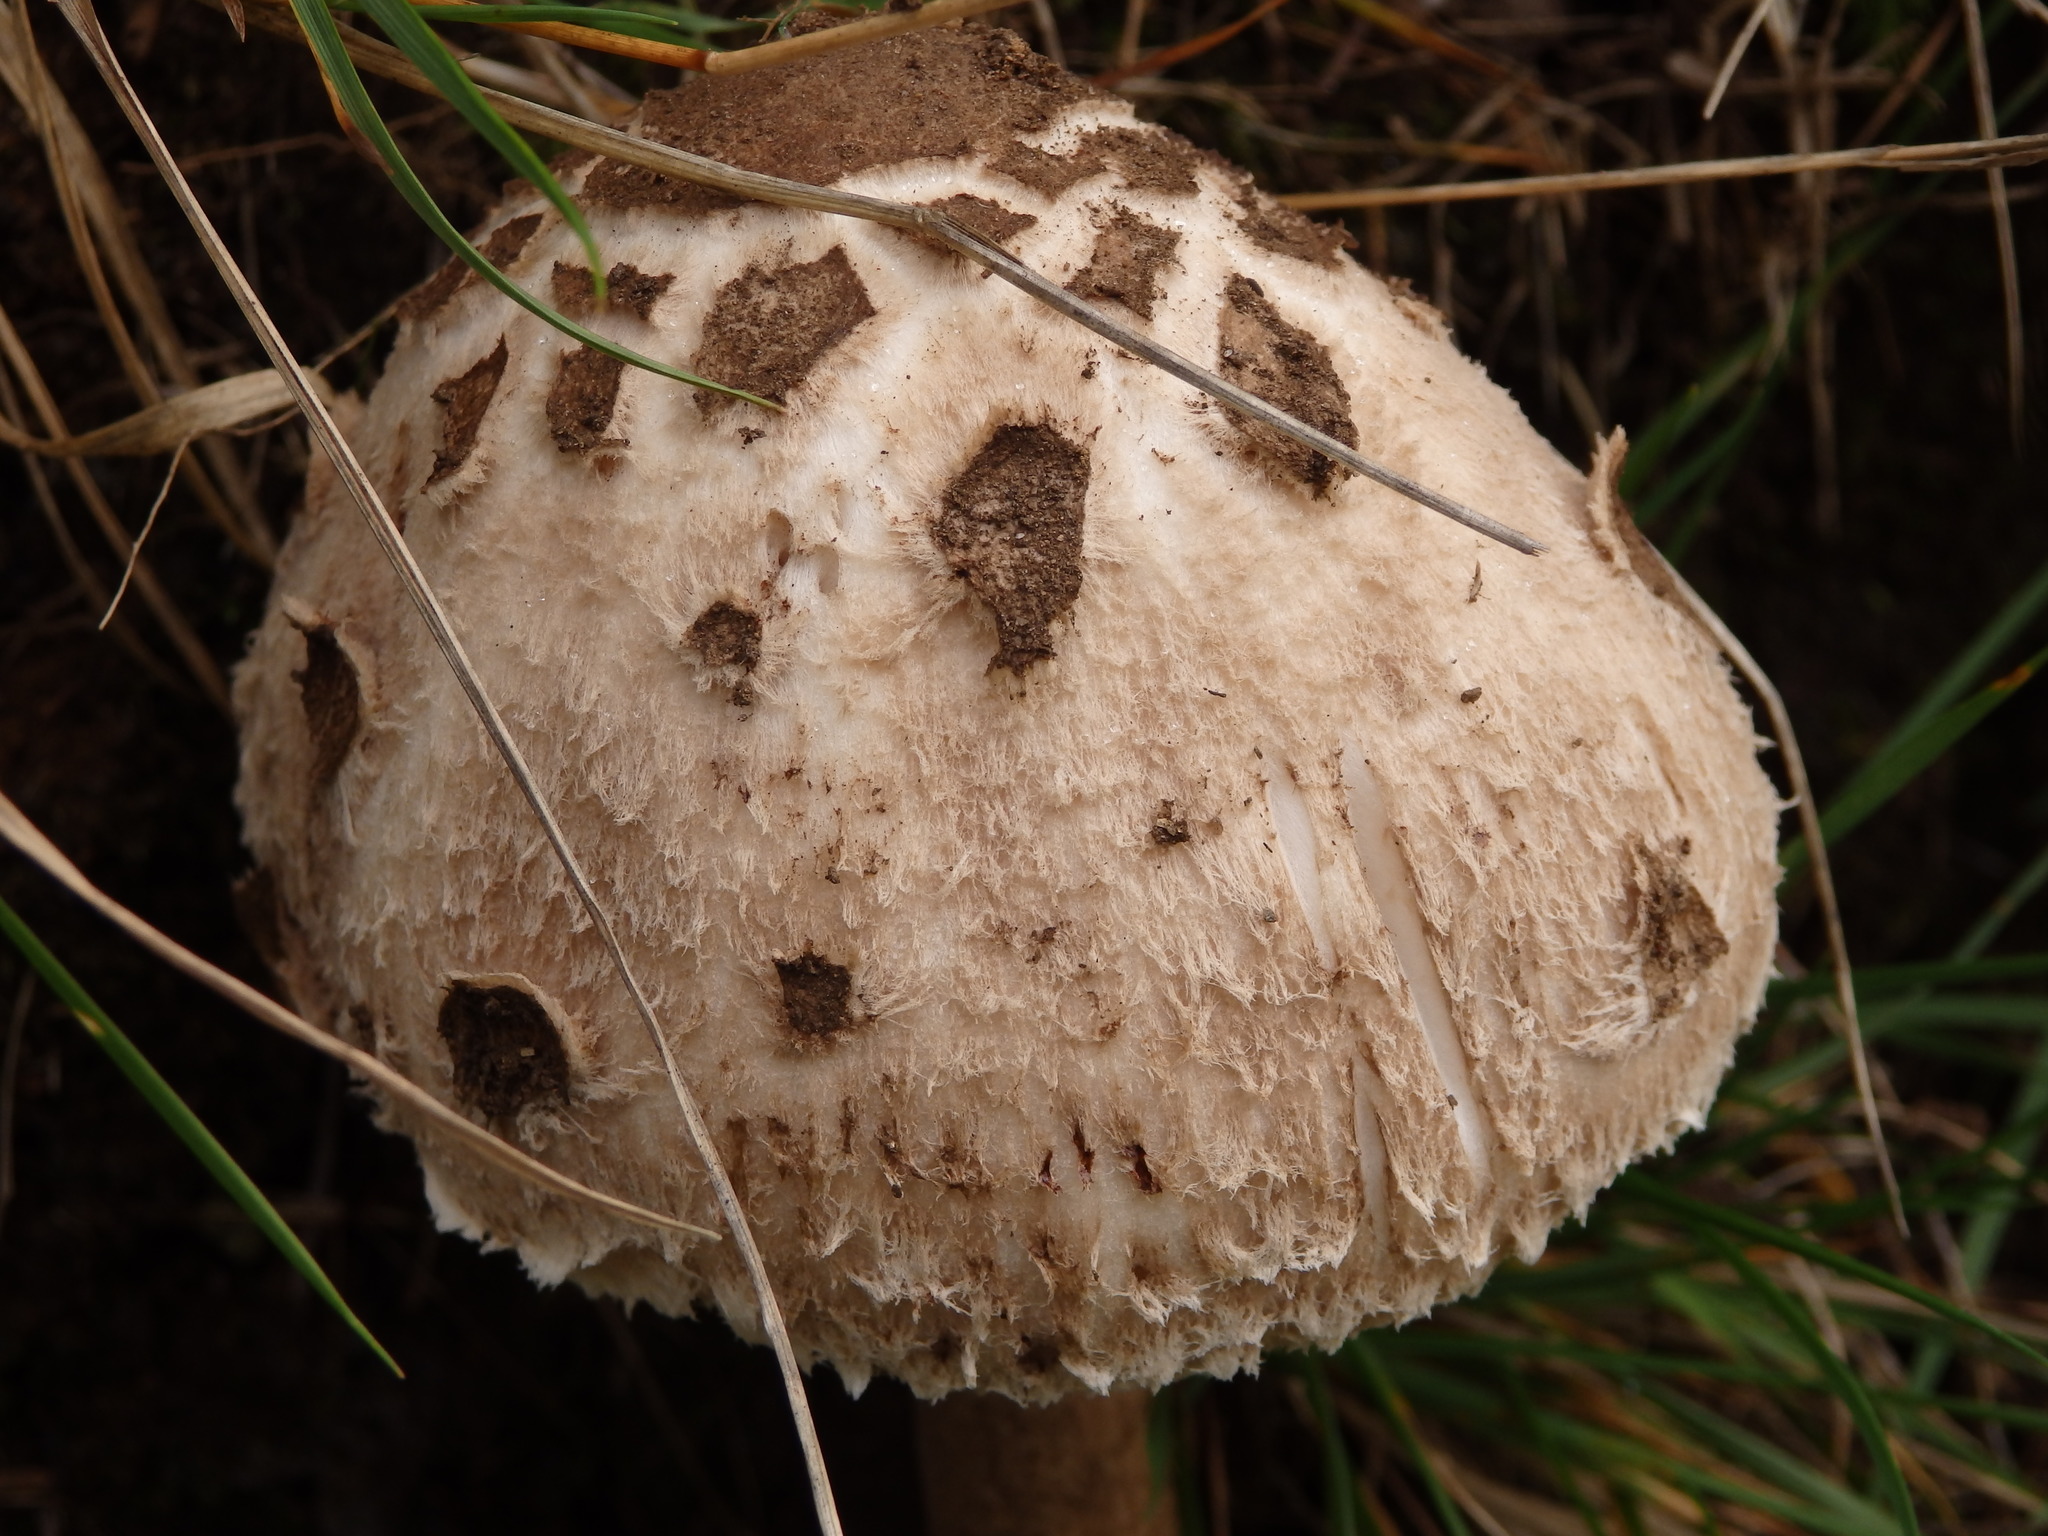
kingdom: Fungi
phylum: Basidiomycota
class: Agaricomycetes
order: Agaricales
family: Agaricaceae
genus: Macrolepiota
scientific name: Macrolepiota procera
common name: Parasol
